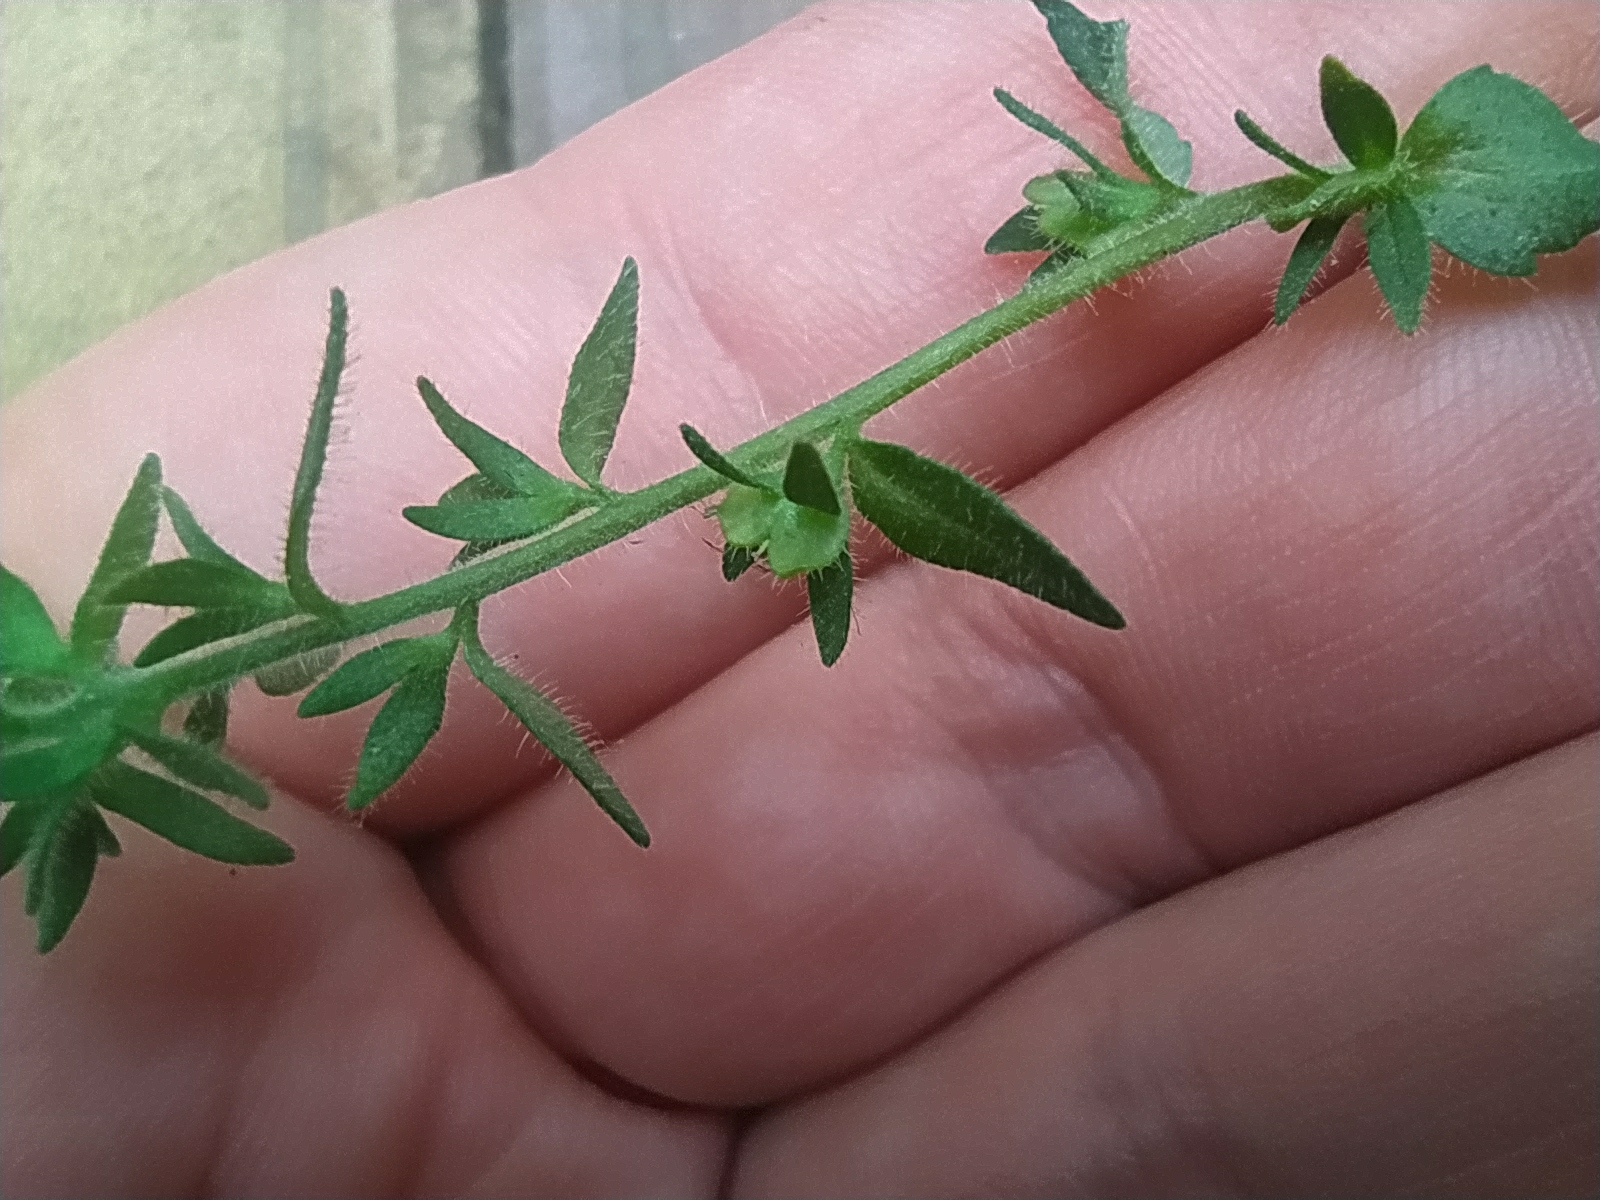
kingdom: Plantae
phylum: Tracheophyta
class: Magnoliopsida
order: Lamiales
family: Plantaginaceae
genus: Veronica
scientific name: Veronica arvensis
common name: Corn speedwell
